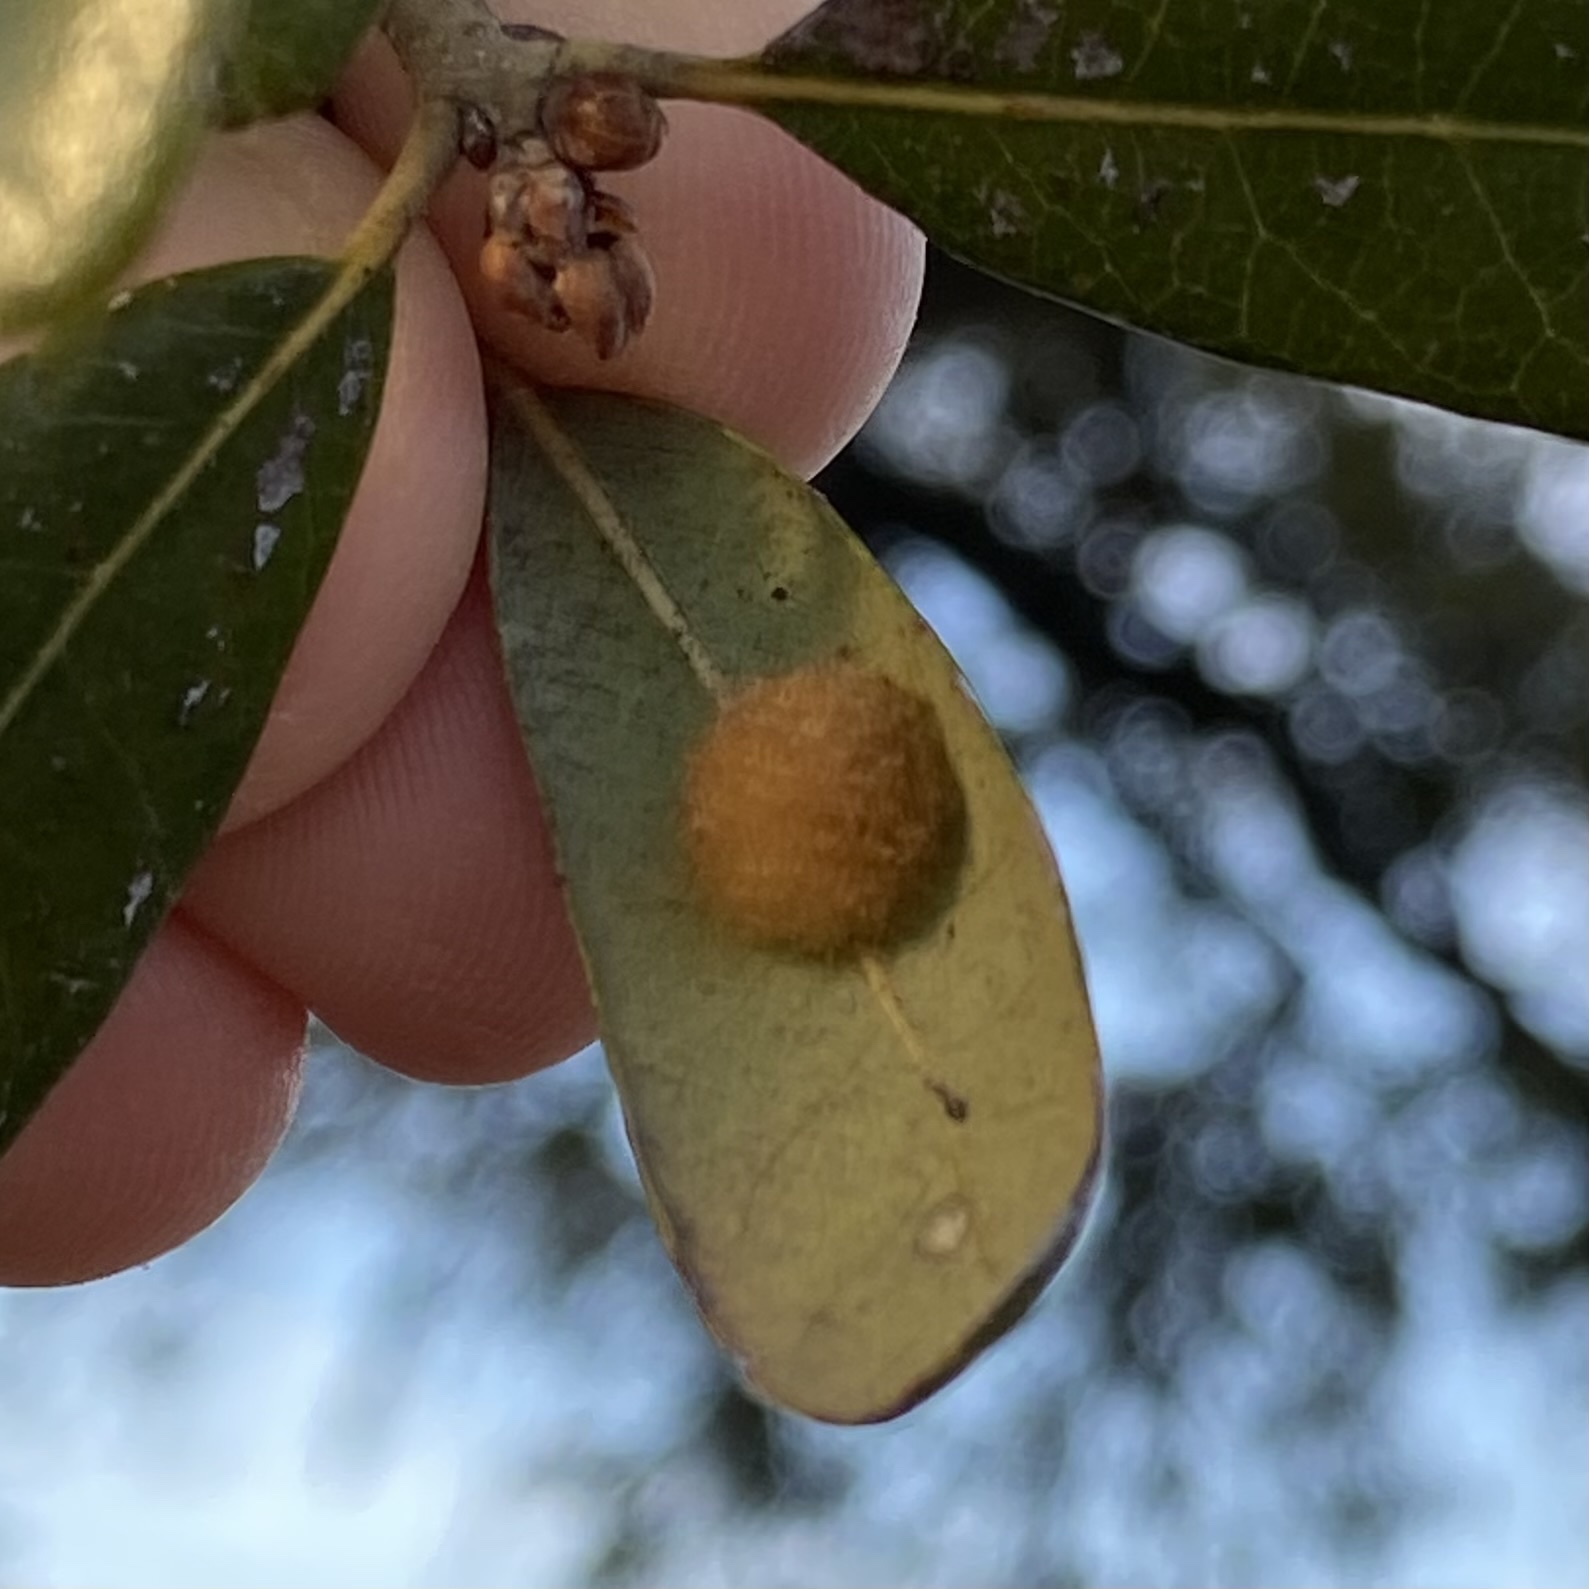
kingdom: Animalia
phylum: Arthropoda
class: Insecta
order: Hymenoptera
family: Cynipidae
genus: Andricus
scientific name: Andricus Druon quercuslanigerum
